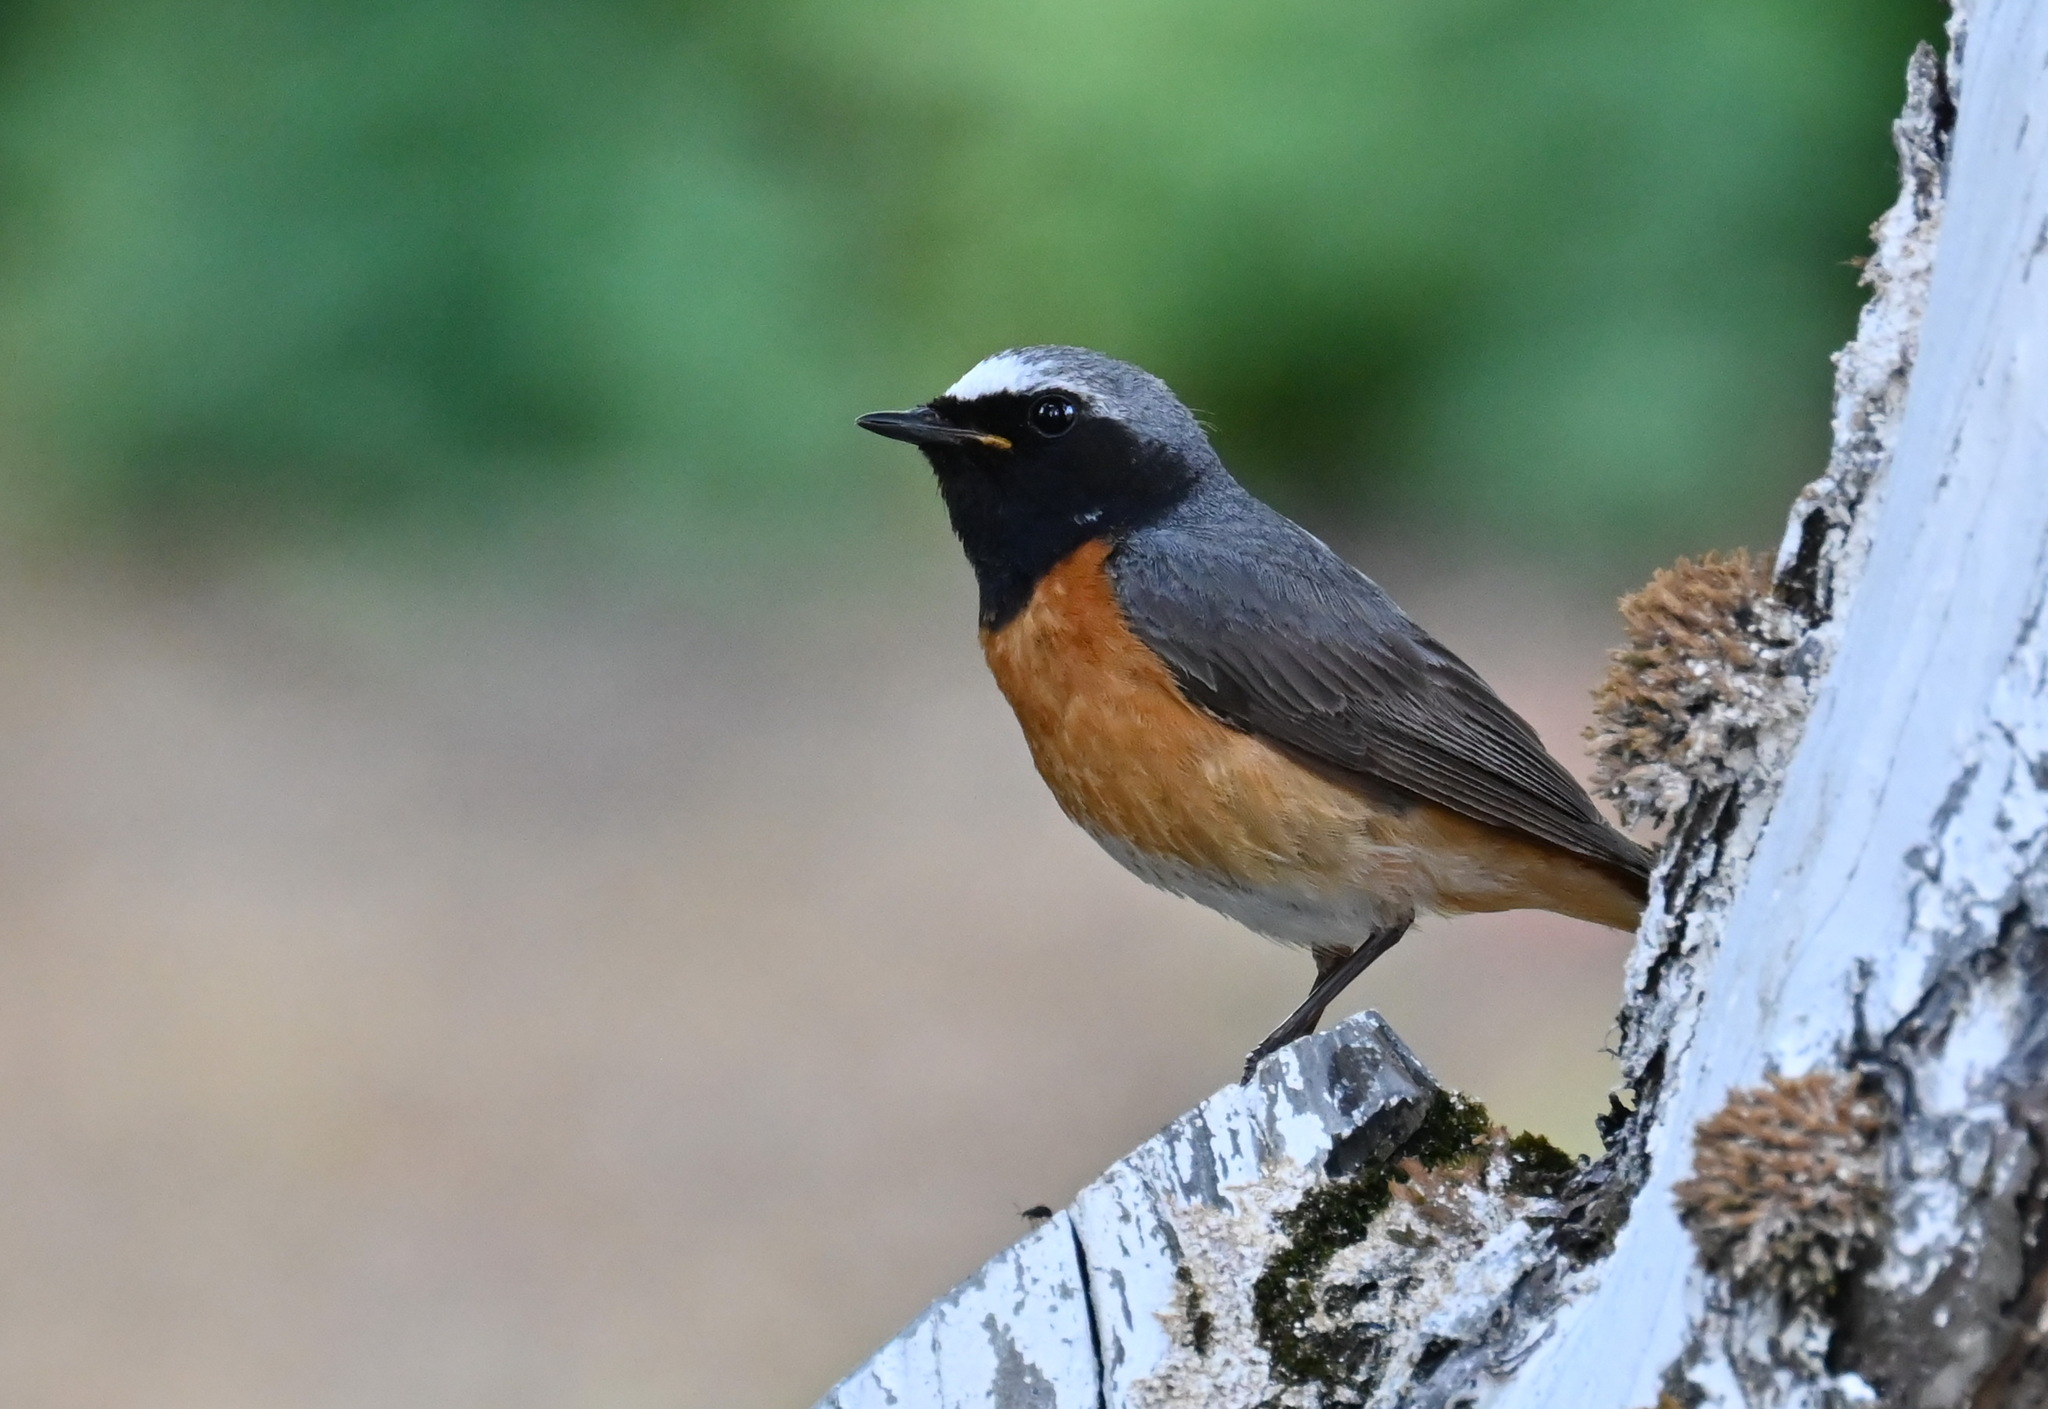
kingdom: Animalia
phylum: Chordata
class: Aves
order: Passeriformes
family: Muscicapidae
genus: Phoenicurus
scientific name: Phoenicurus phoenicurus
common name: Common redstart
